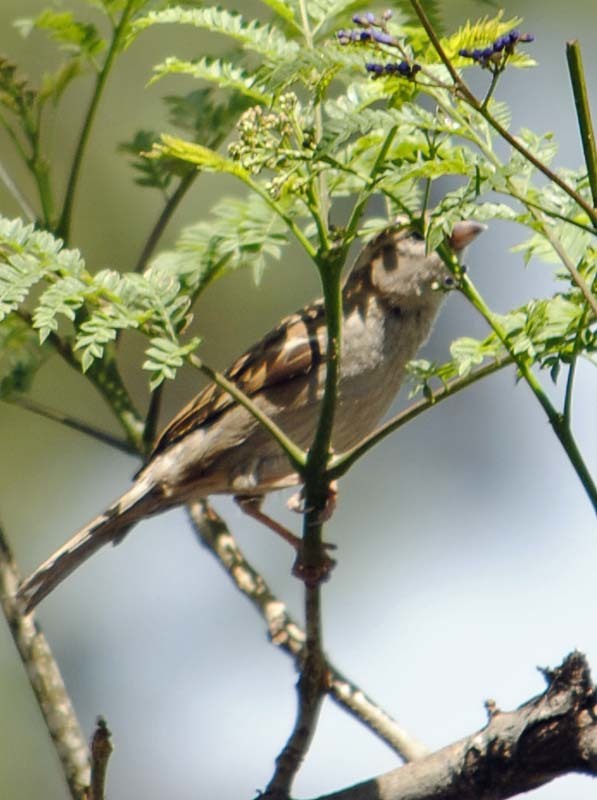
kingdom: Animalia
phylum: Chordata
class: Aves
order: Passeriformes
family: Passeridae
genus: Passer
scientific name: Passer domesticus
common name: House sparrow
